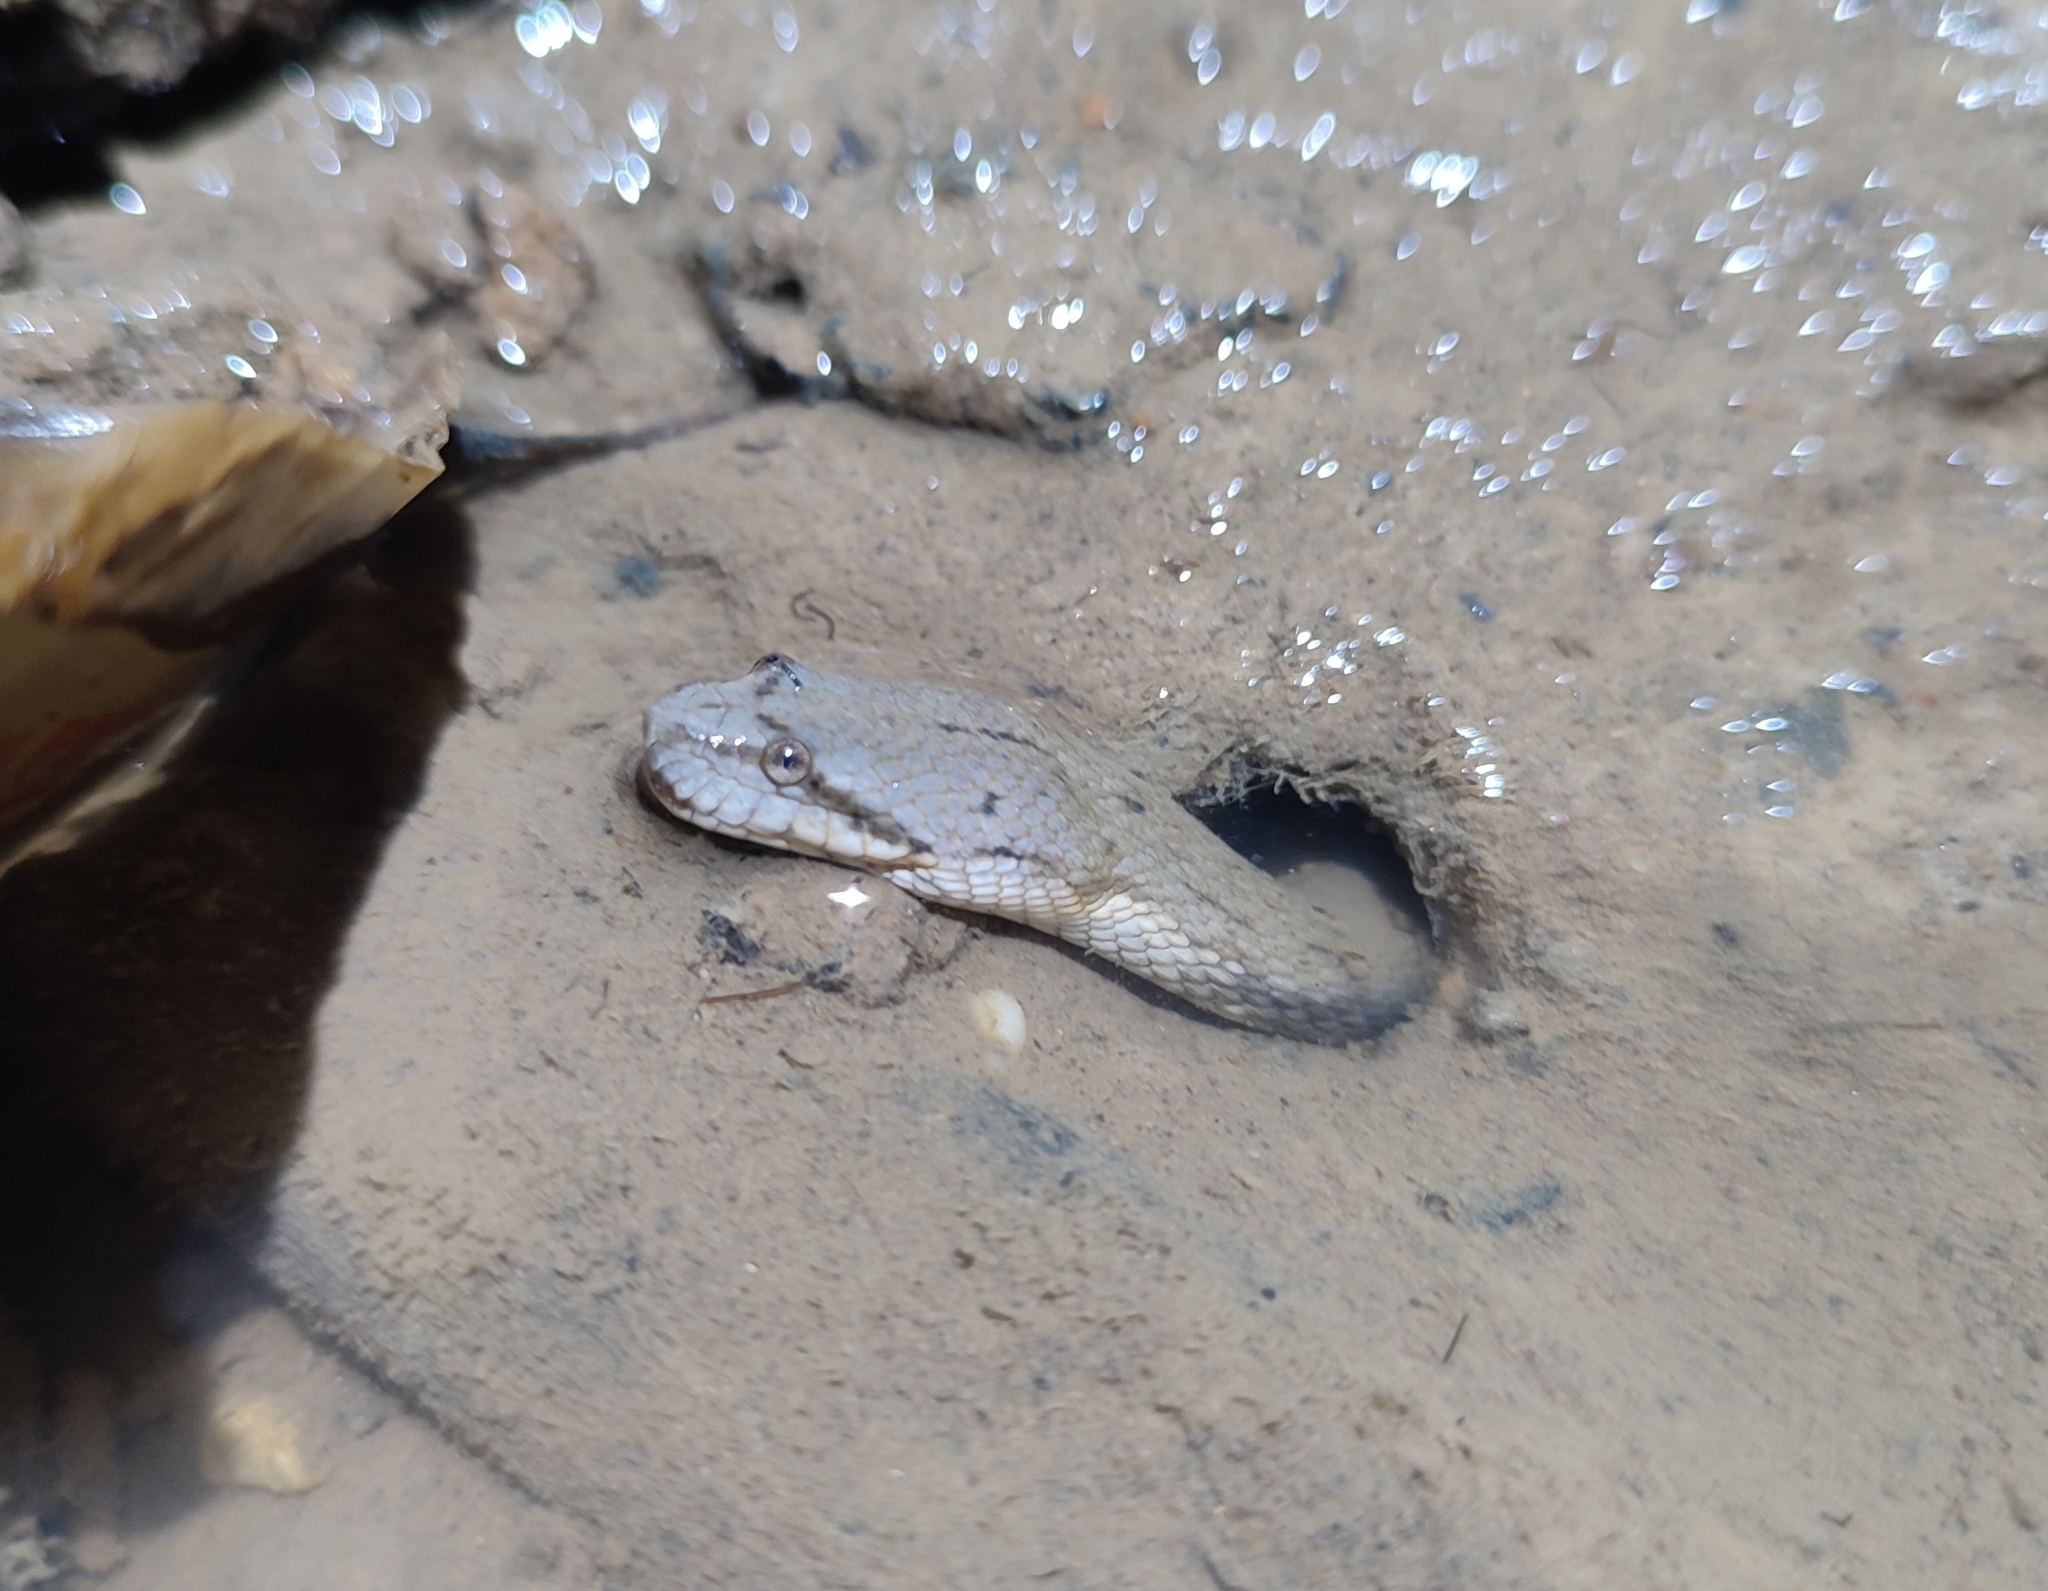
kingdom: Animalia
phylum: Chordata
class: Squamata
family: Homalopsidae
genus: Cerberus
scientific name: Cerberus schneiderii
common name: Southeast asian bockadam
